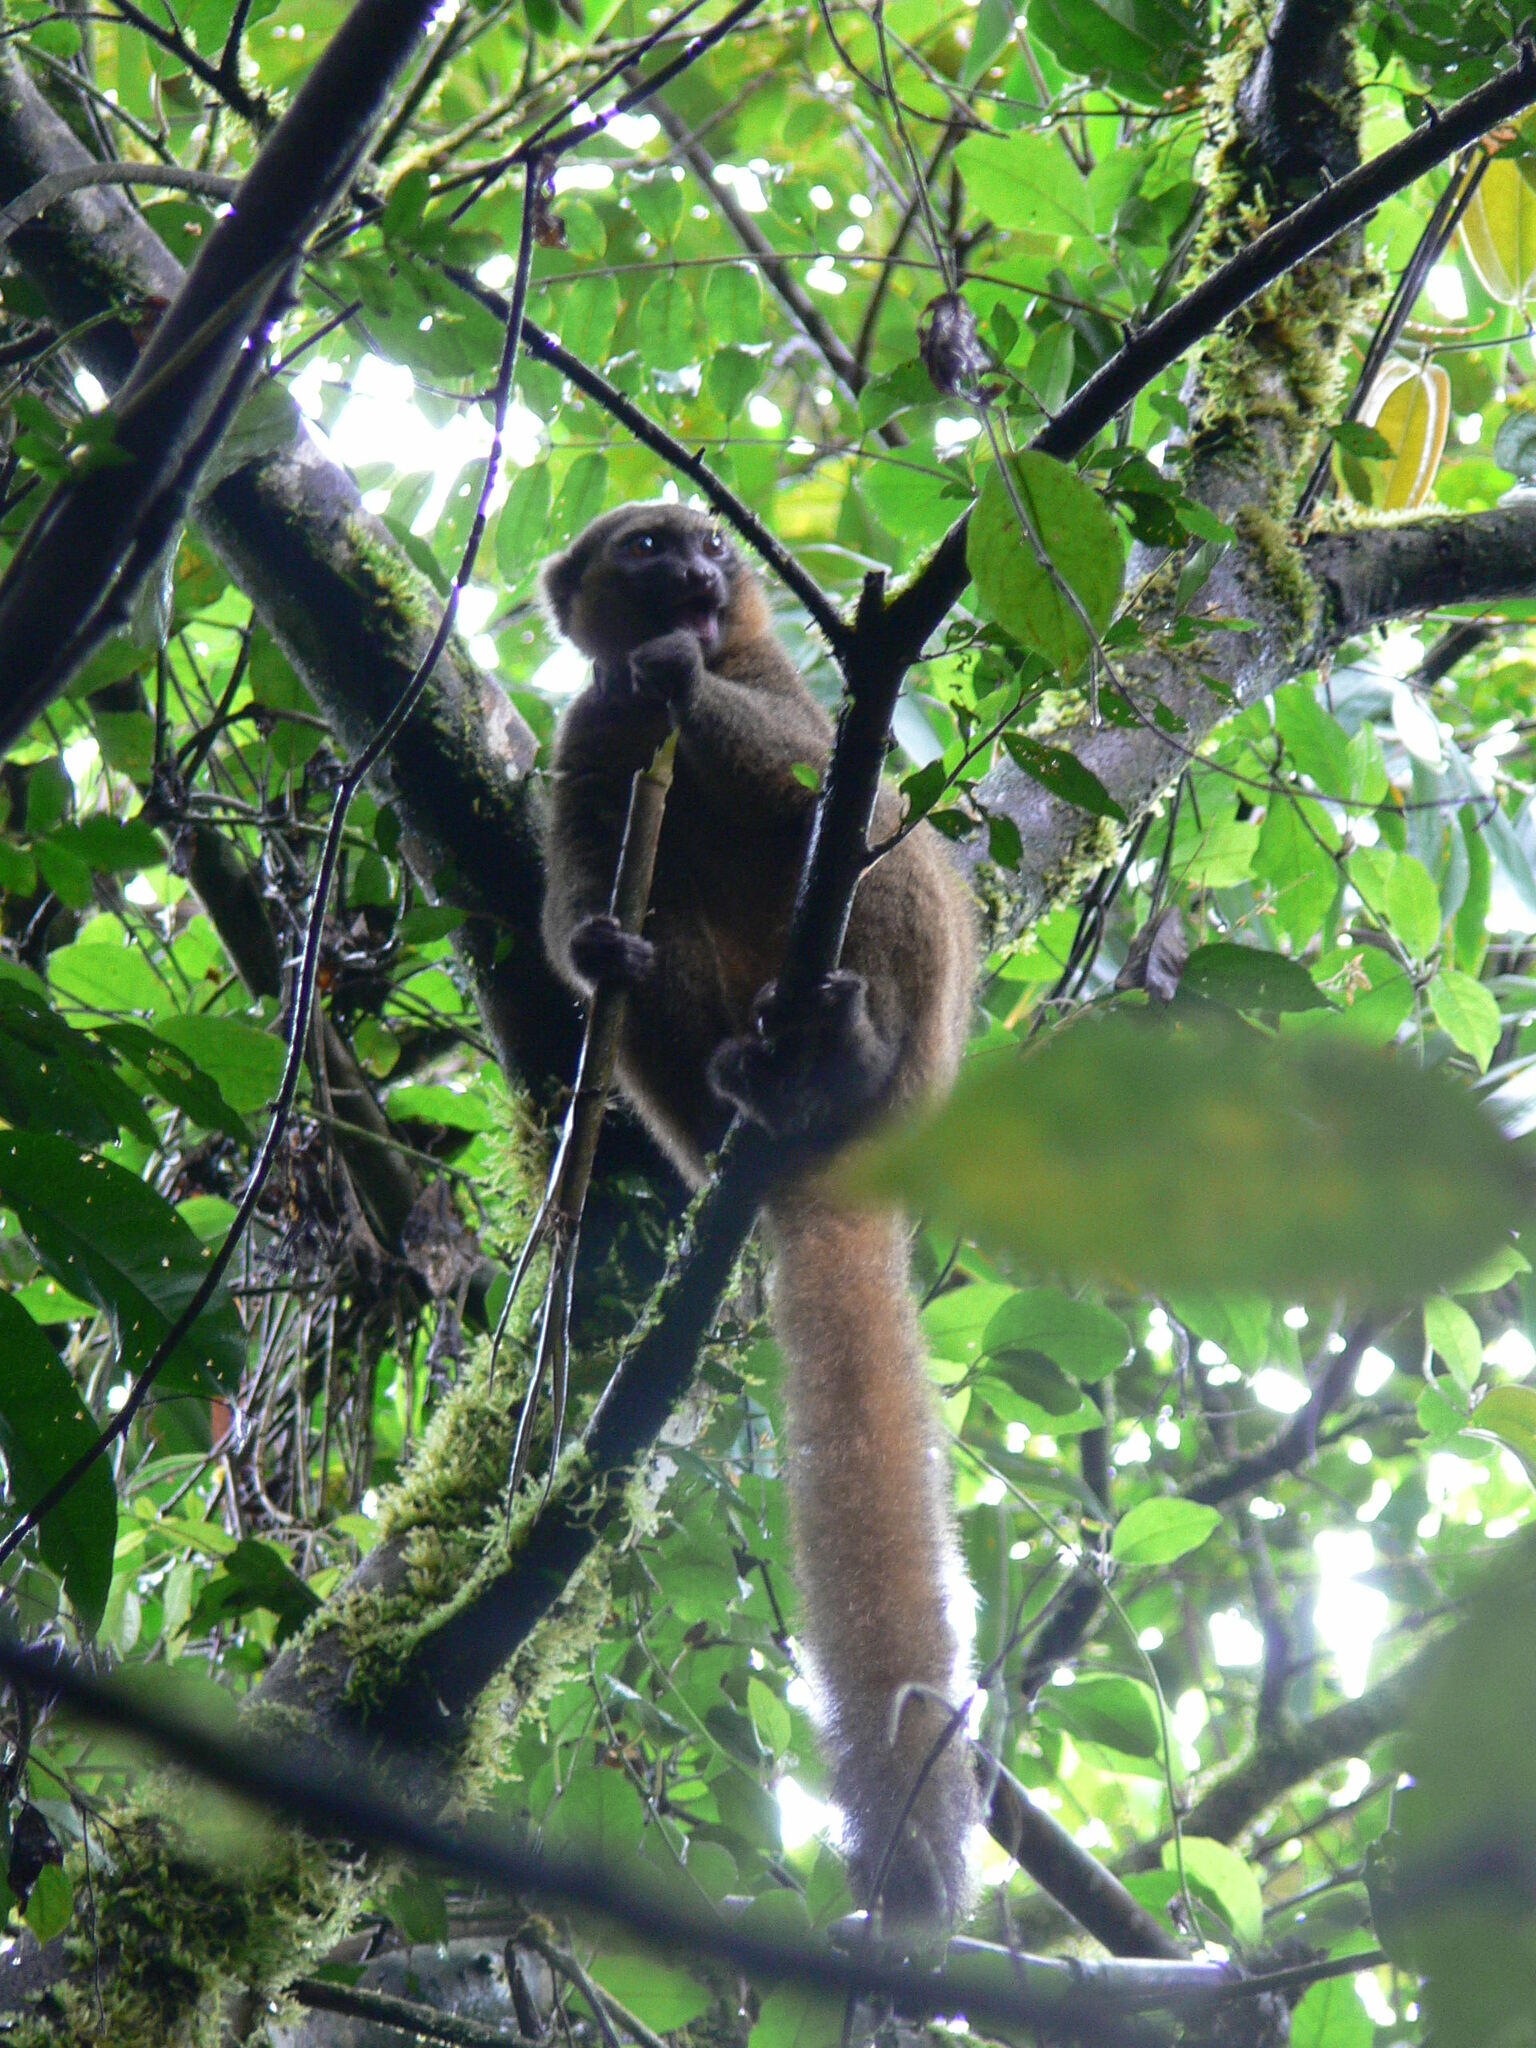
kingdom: Animalia
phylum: Chordata
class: Mammalia
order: Primates
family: Lemuridae
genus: Hapalemur
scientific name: Hapalemur aureus
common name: Golden bamboo lemur
